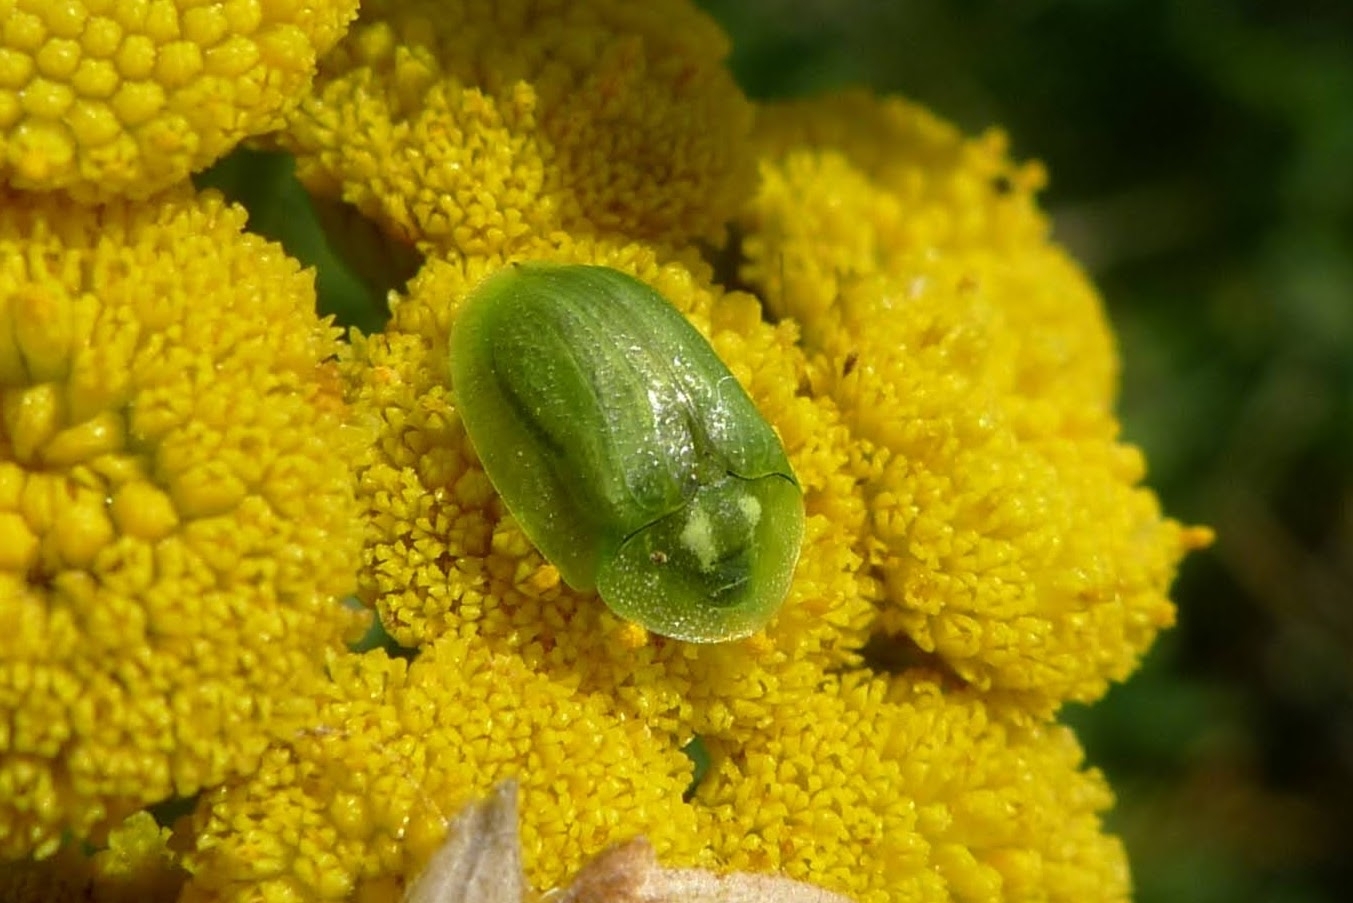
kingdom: Animalia
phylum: Arthropoda
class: Insecta
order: Coleoptera
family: Chrysomelidae
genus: Cassida
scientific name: Cassida stigmatica
